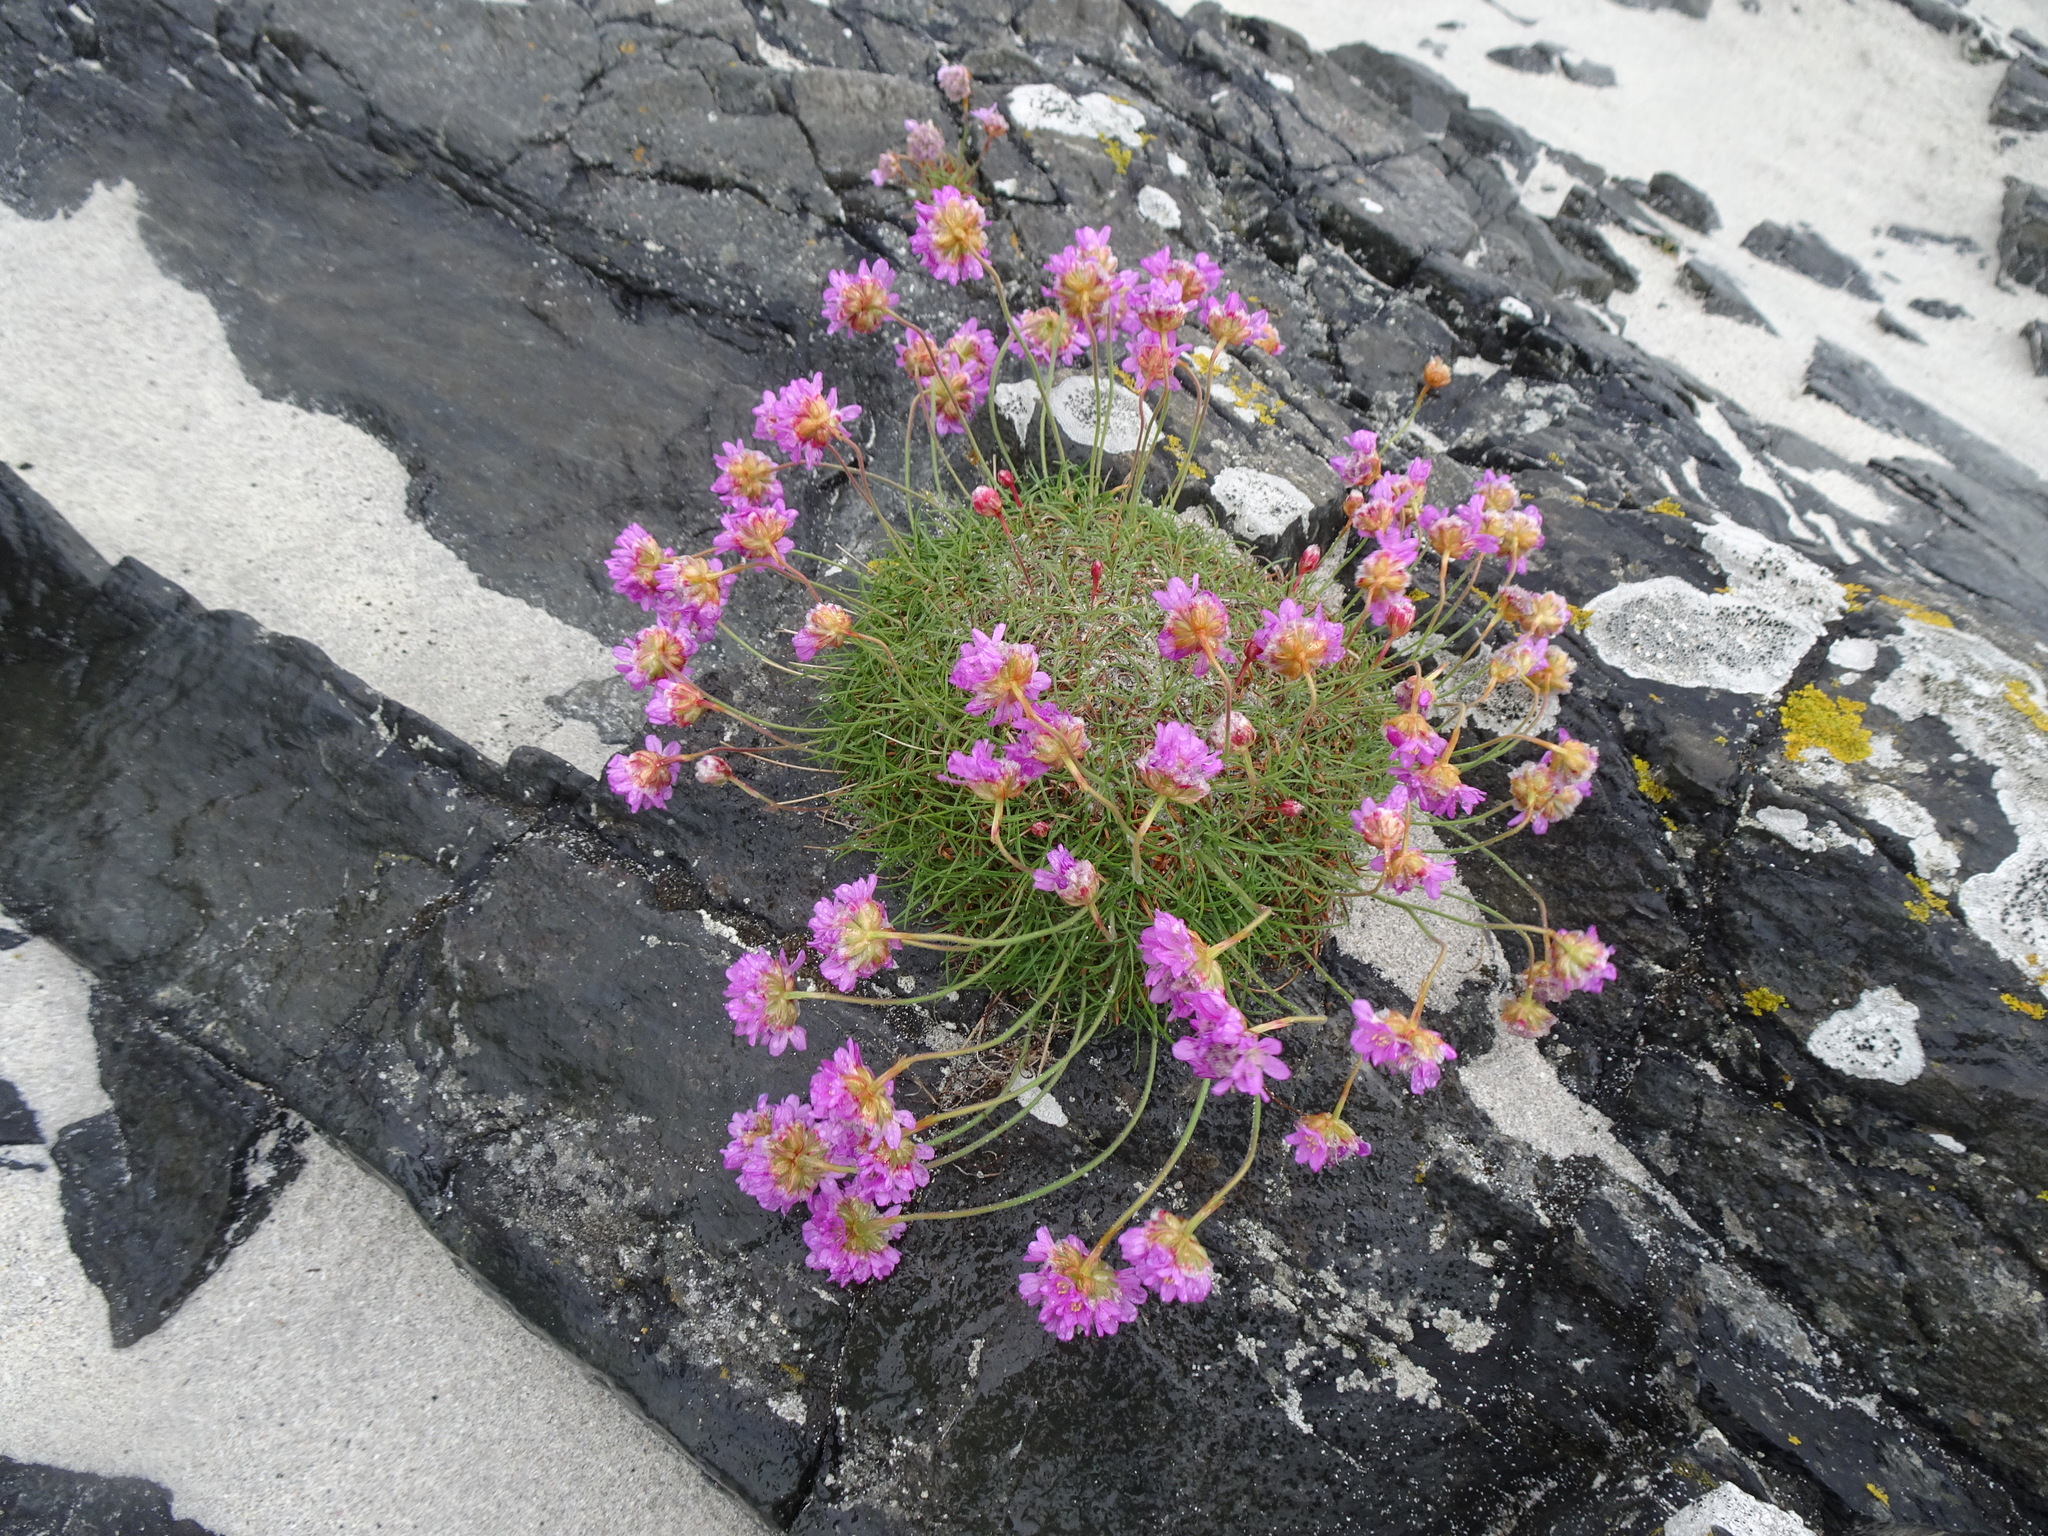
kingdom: Plantae
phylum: Tracheophyta
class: Magnoliopsida
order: Caryophyllales
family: Plumbaginaceae
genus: Armeria
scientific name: Armeria maritima
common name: Thrift
